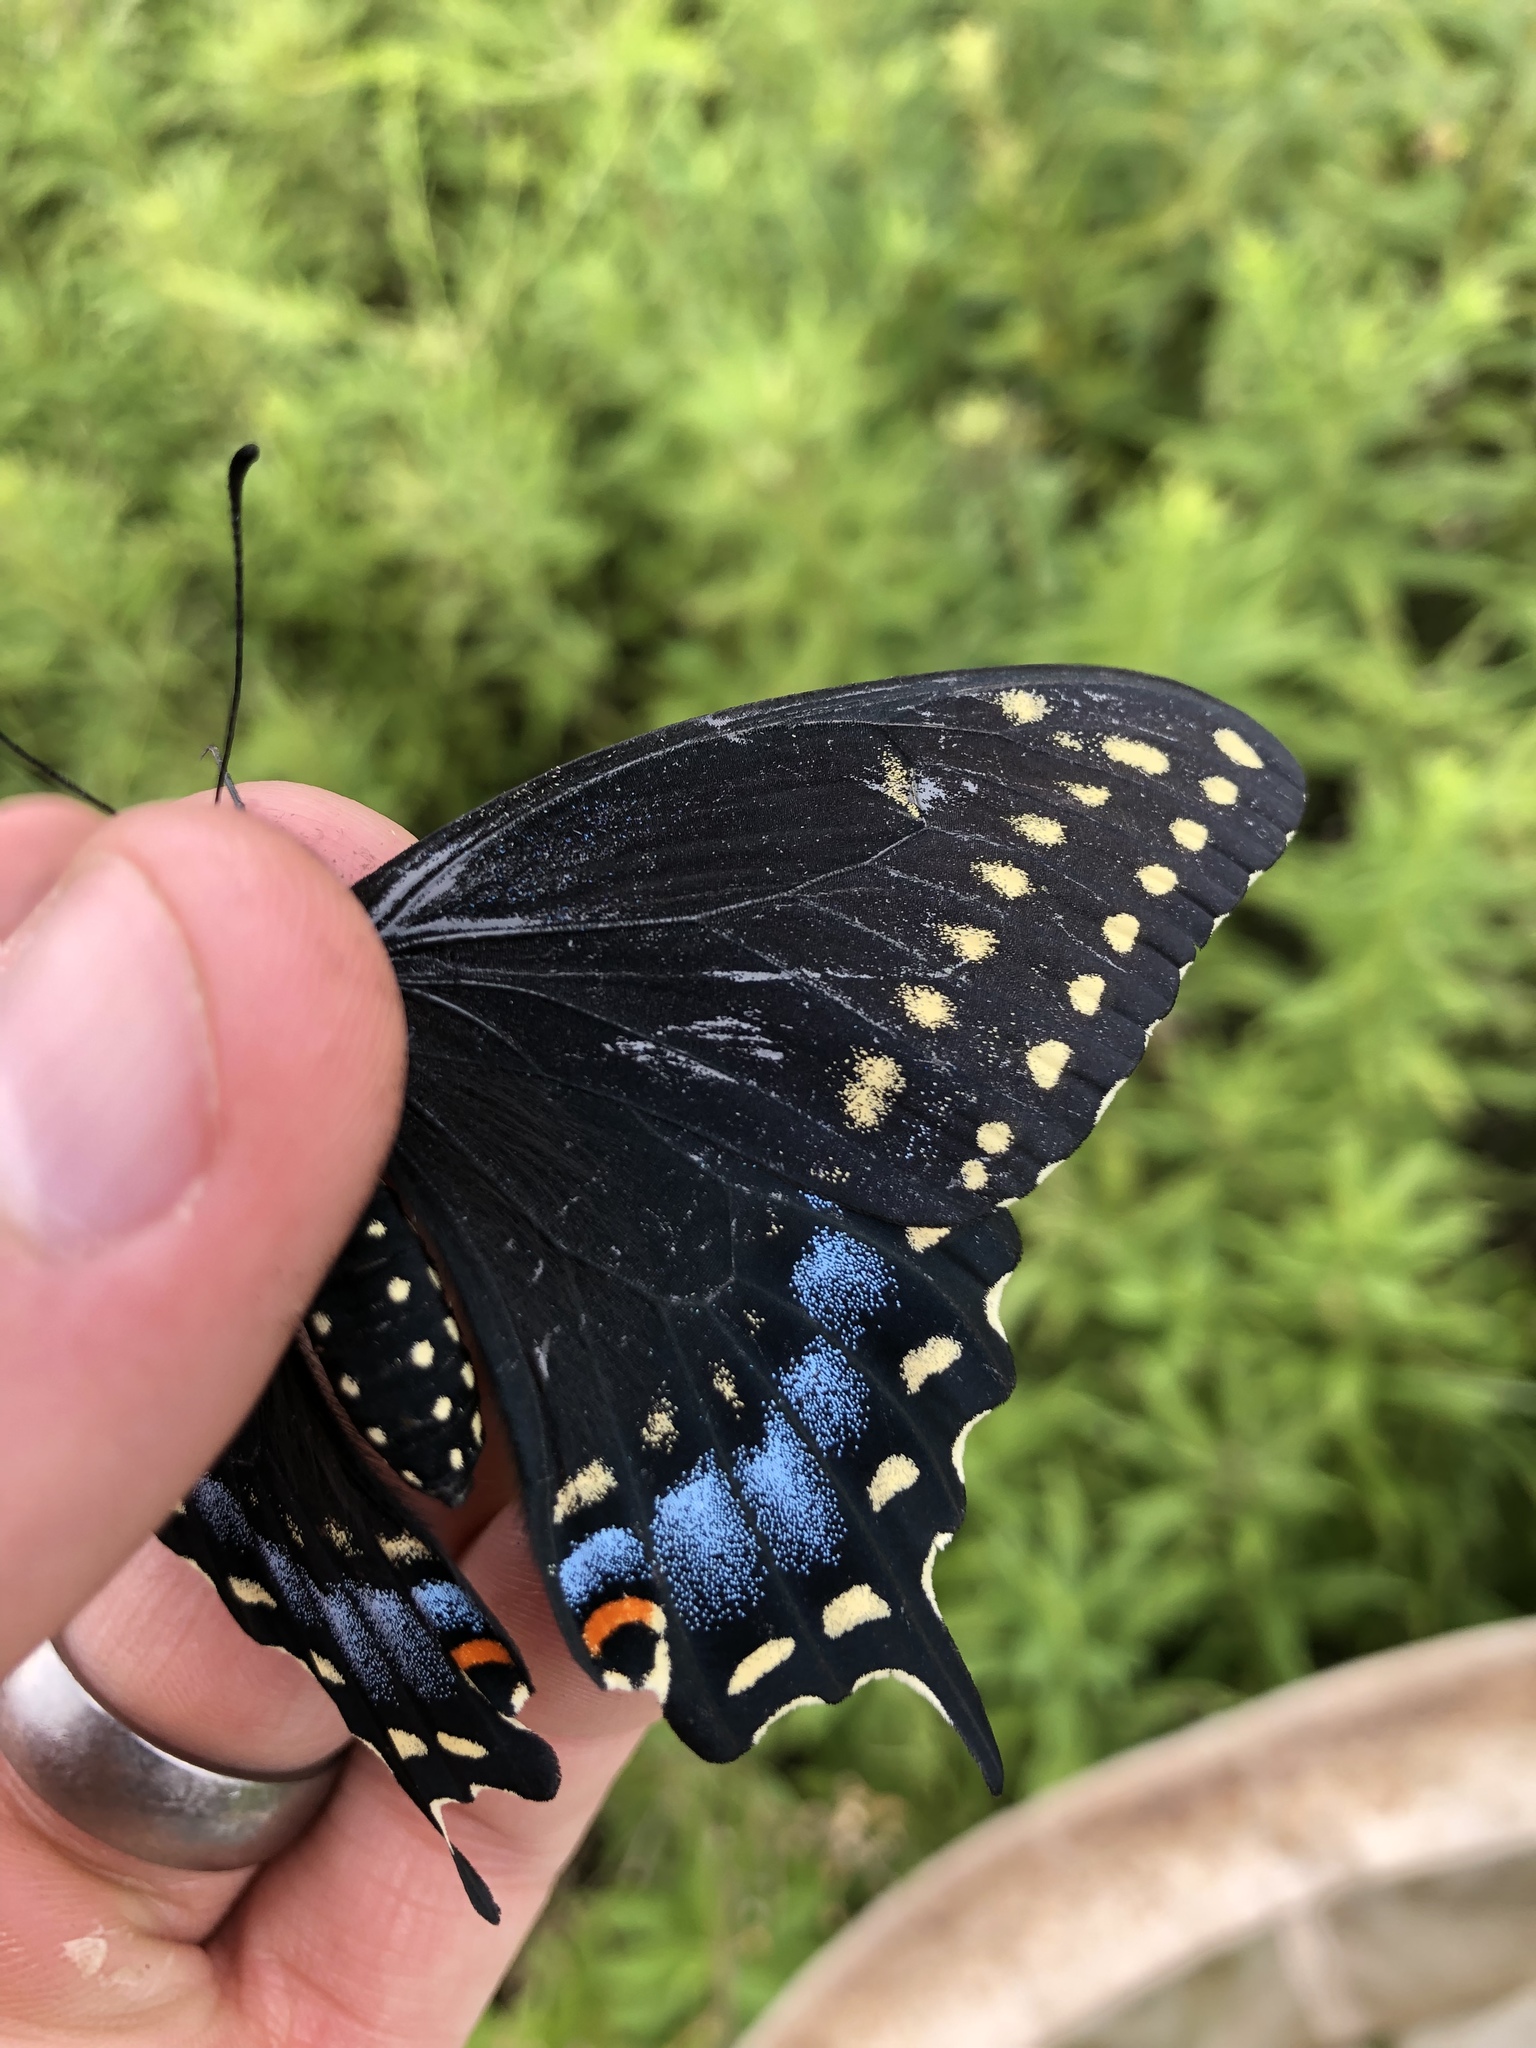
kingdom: Animalia
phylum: Arthropoda
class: Insecta
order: Lepidoptera
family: Papilionidae
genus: Papilio
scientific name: Papilio polyxenes
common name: Black swallowtail
